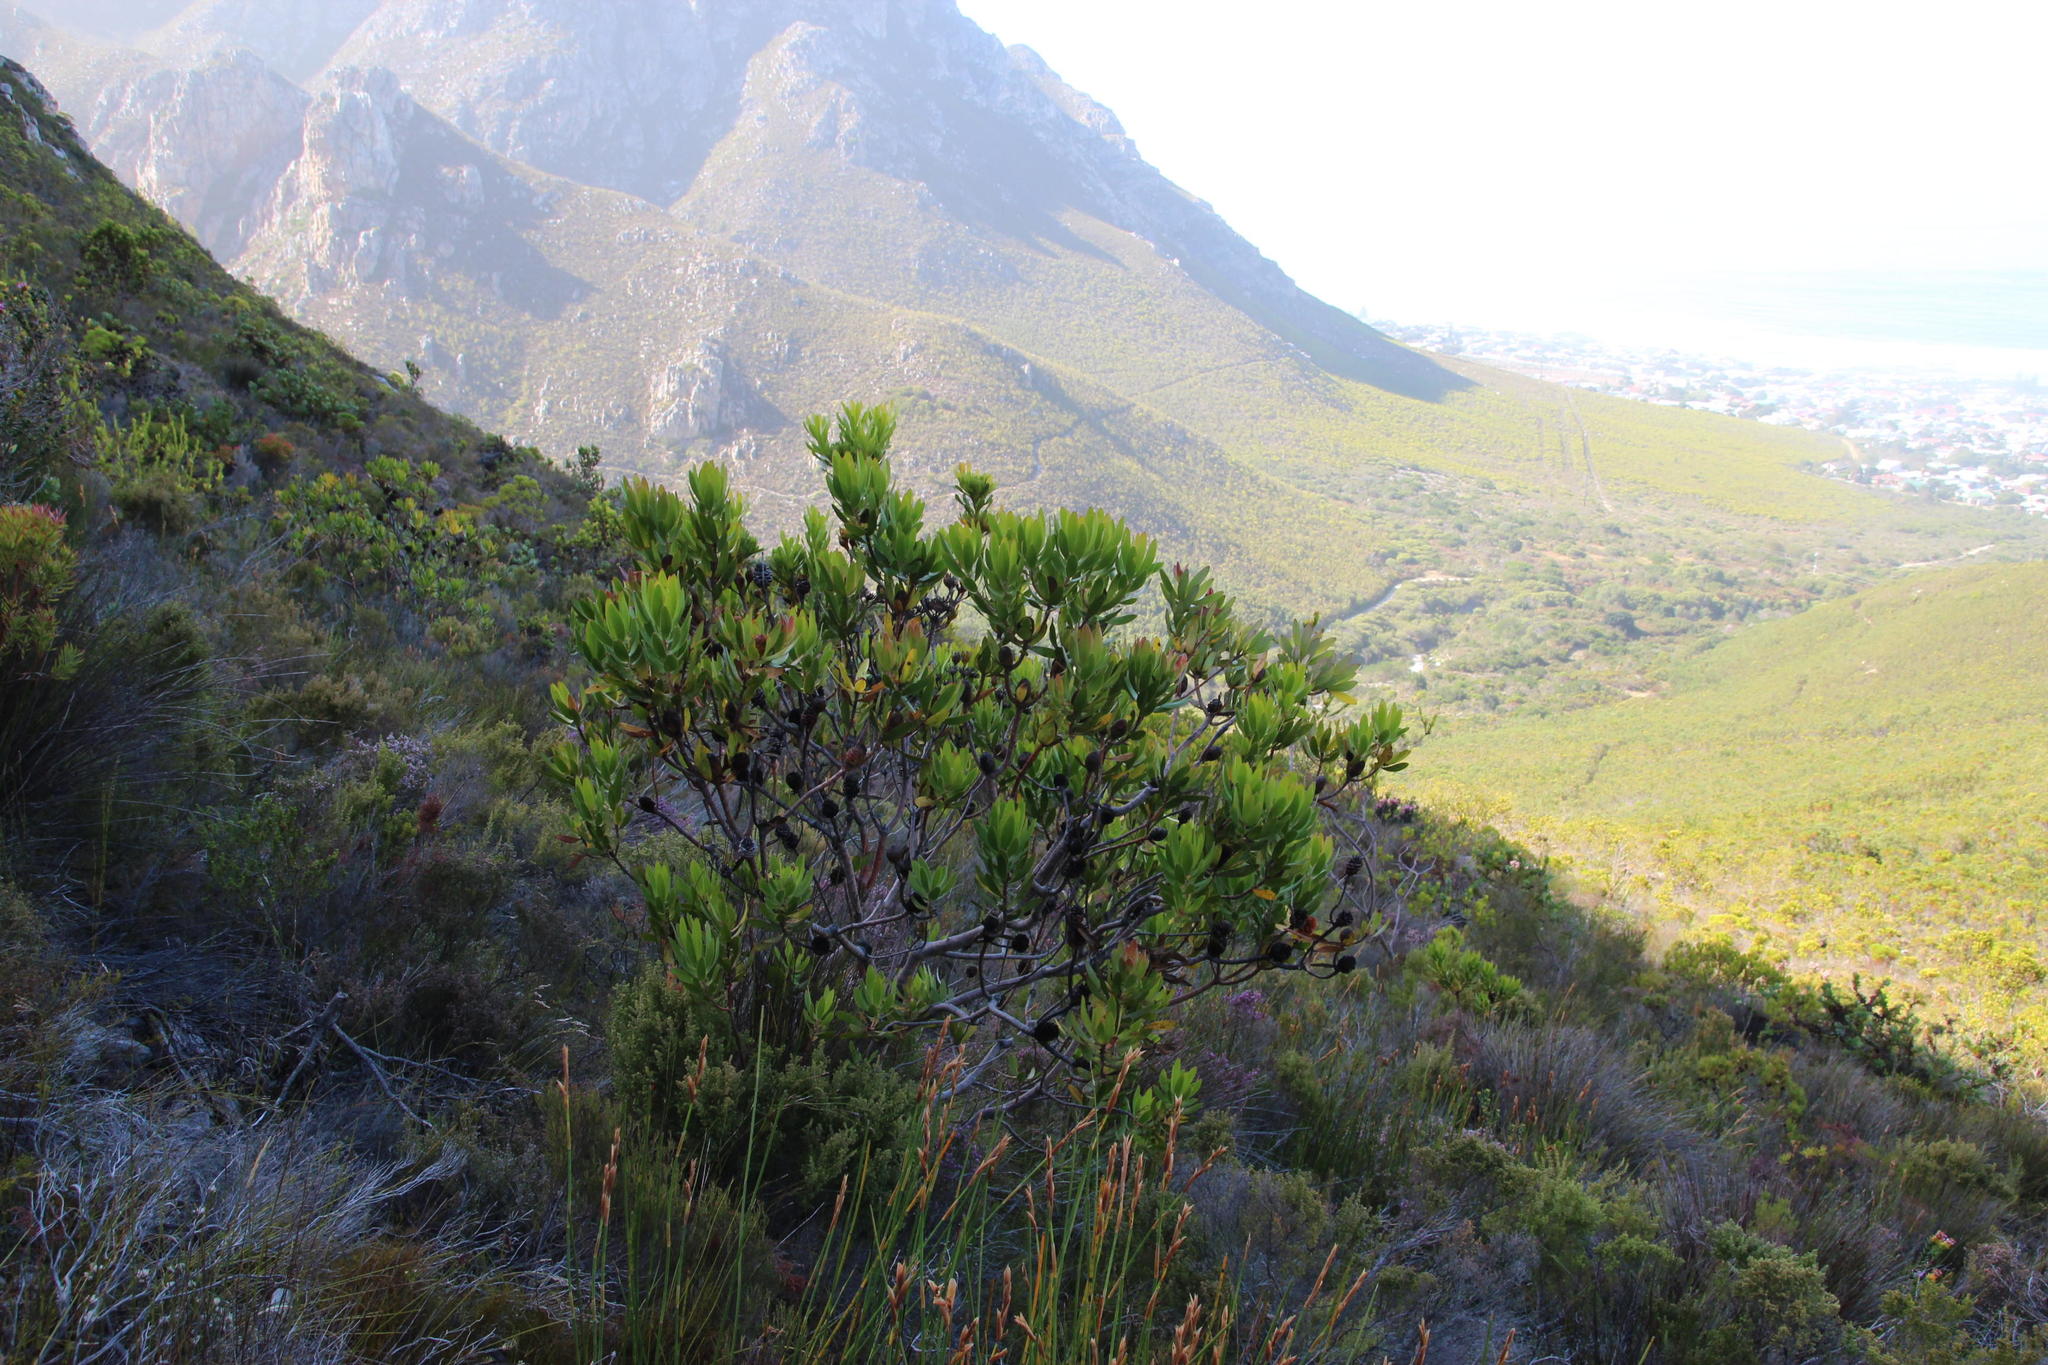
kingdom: Plantae
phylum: Tracheophyta
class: Magnoliopsida
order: Proteales
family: Proteaceae
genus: Leucadendron
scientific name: Leucadendron laureolum
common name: Golden sunshinebush
